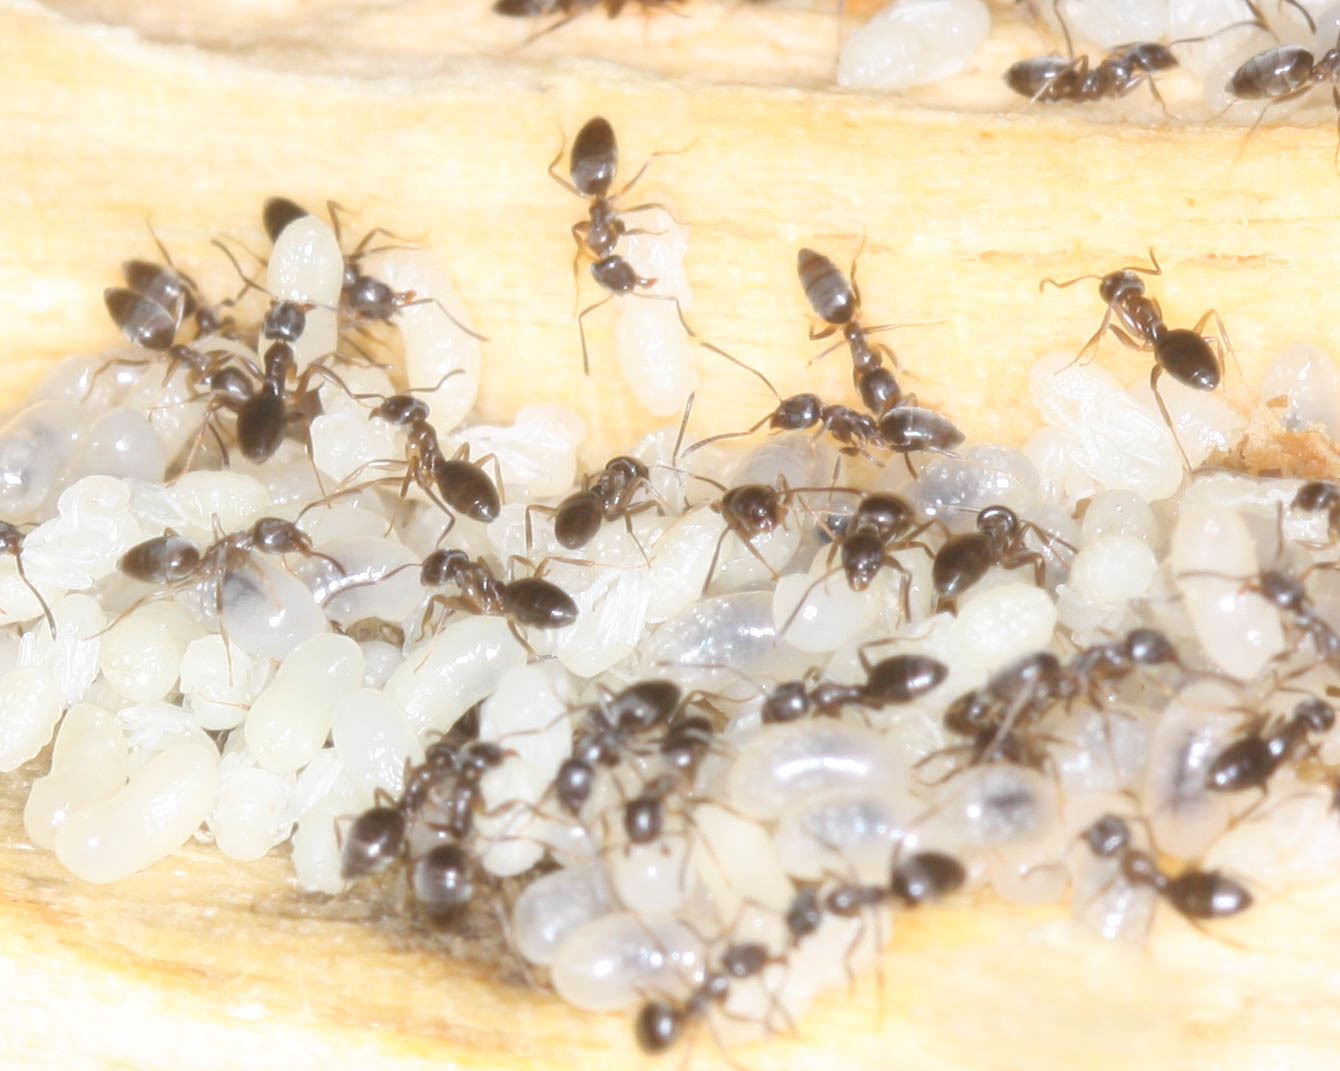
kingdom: Animalia
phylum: Arthropoda
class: Insecta
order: Hymenoptera
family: Formicidae
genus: Tapinoma
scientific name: Tapinoma sessile
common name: Odorous house ant
